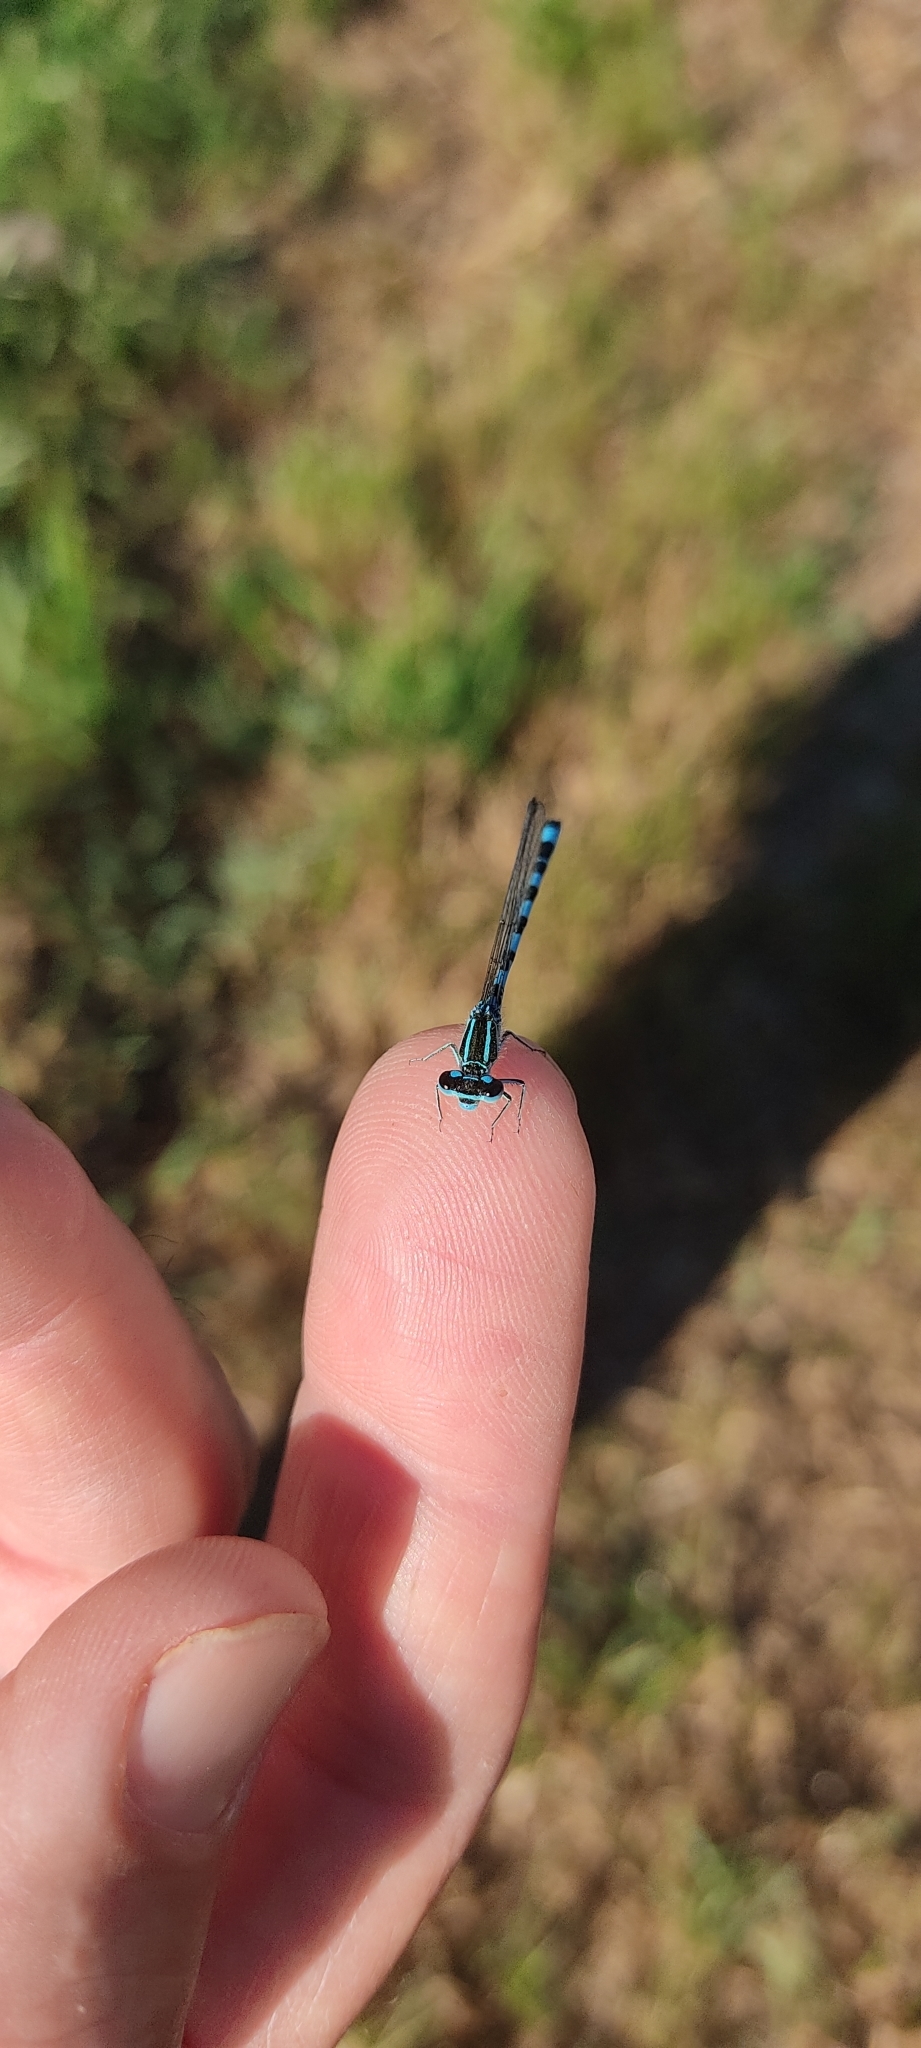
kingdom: Animalia
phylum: Arthropoda
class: Insecta
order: Odonata
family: Coenagrionidae
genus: Coenagrion
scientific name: Coenagrion mercuriale
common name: Southern damselfly
